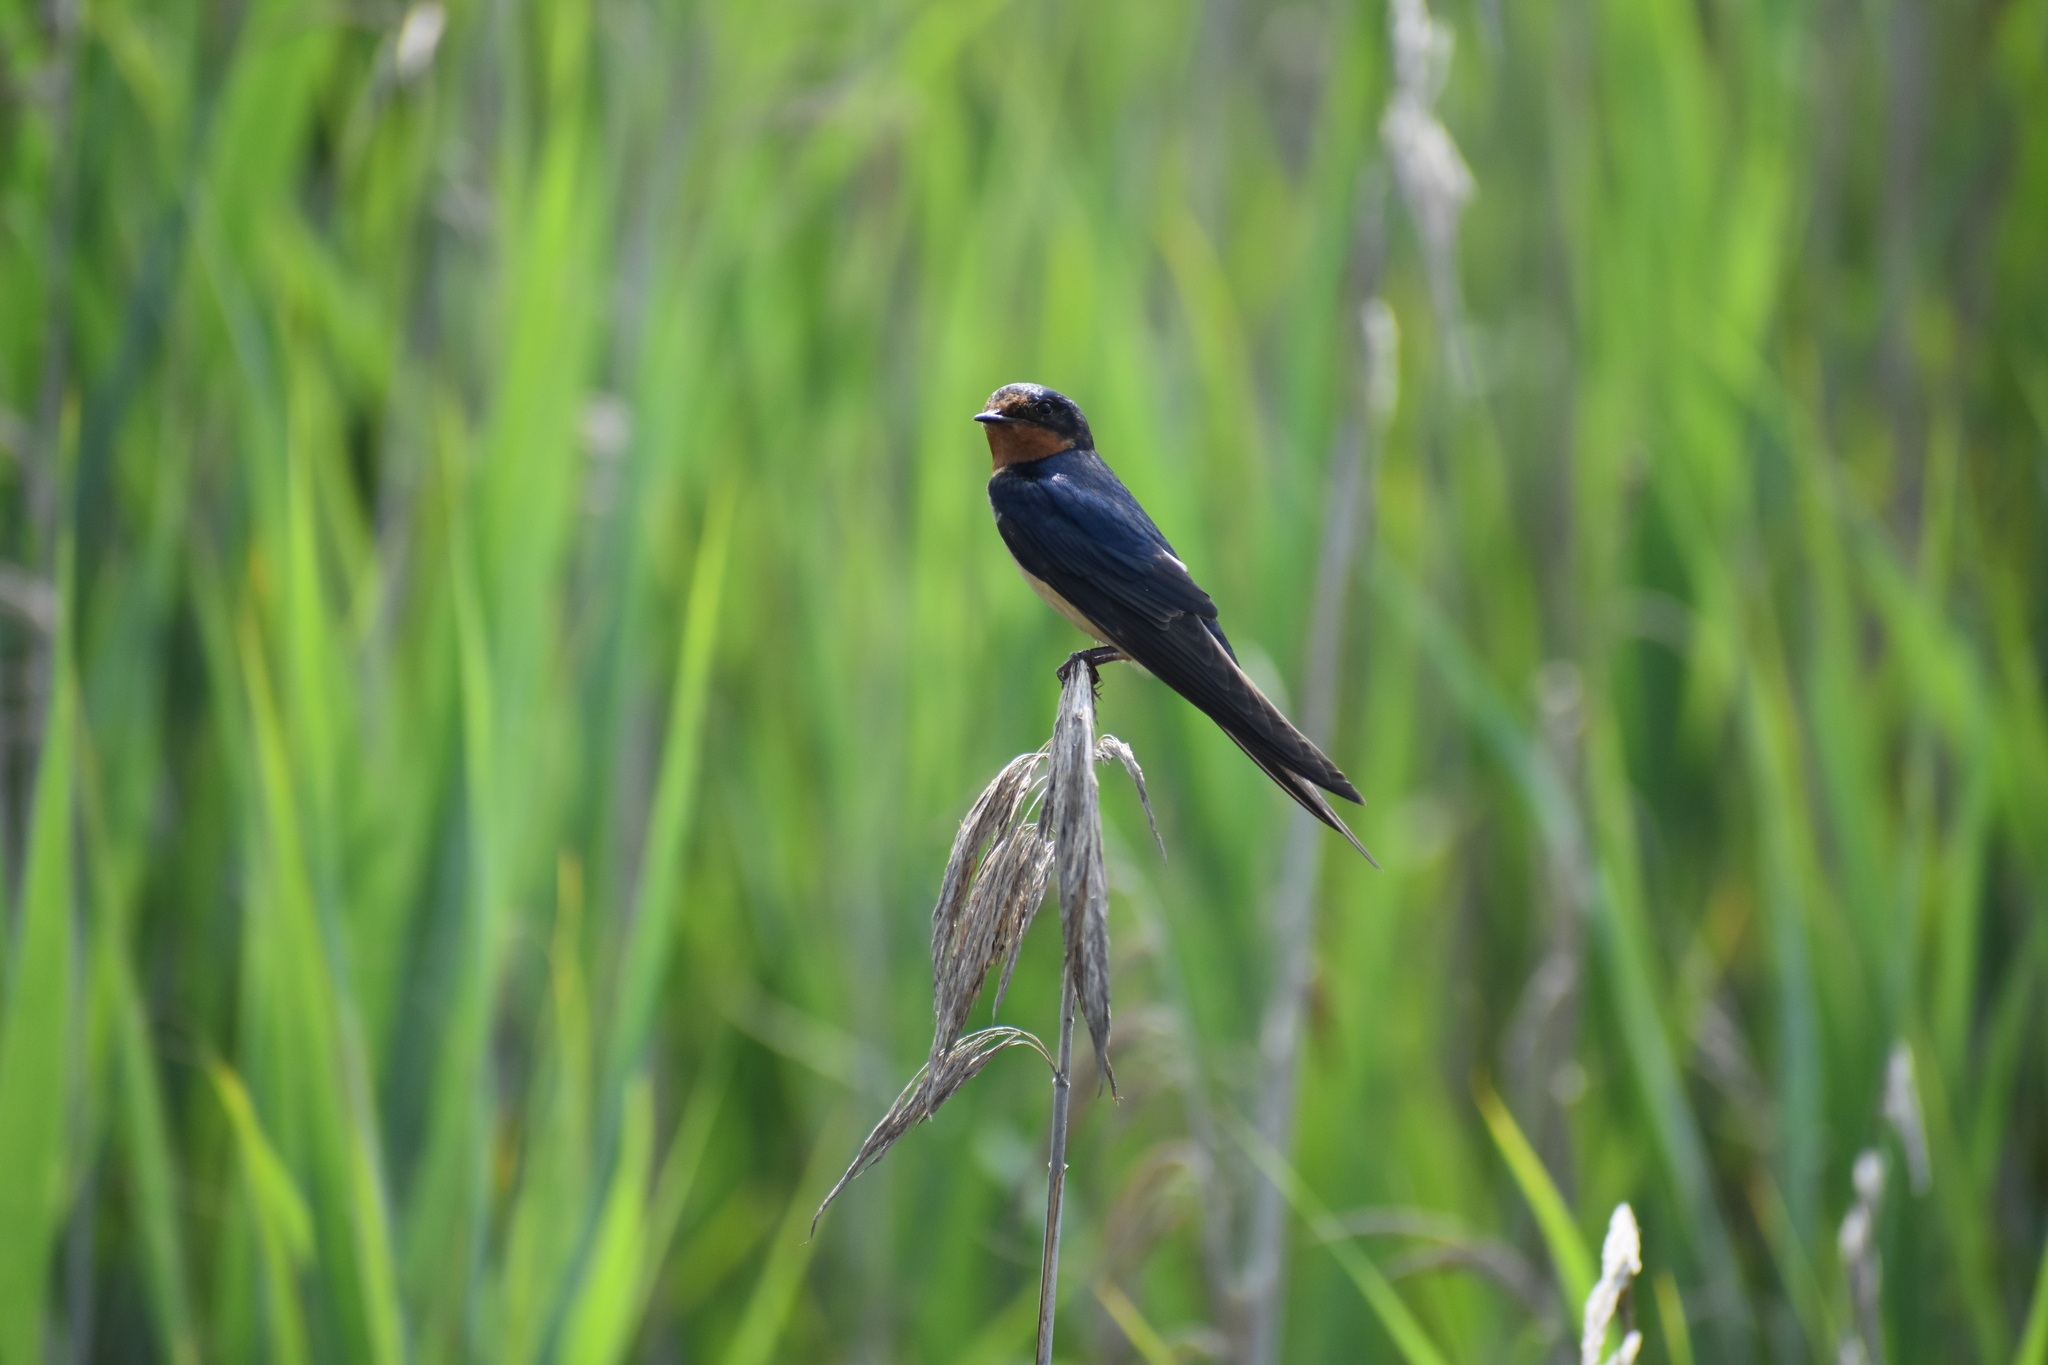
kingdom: Animalia
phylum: Chordata
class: Aves
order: Passeriformes
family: Hirundinidae
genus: Hirundo
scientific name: Hirundo rustica
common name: Barn swallow
